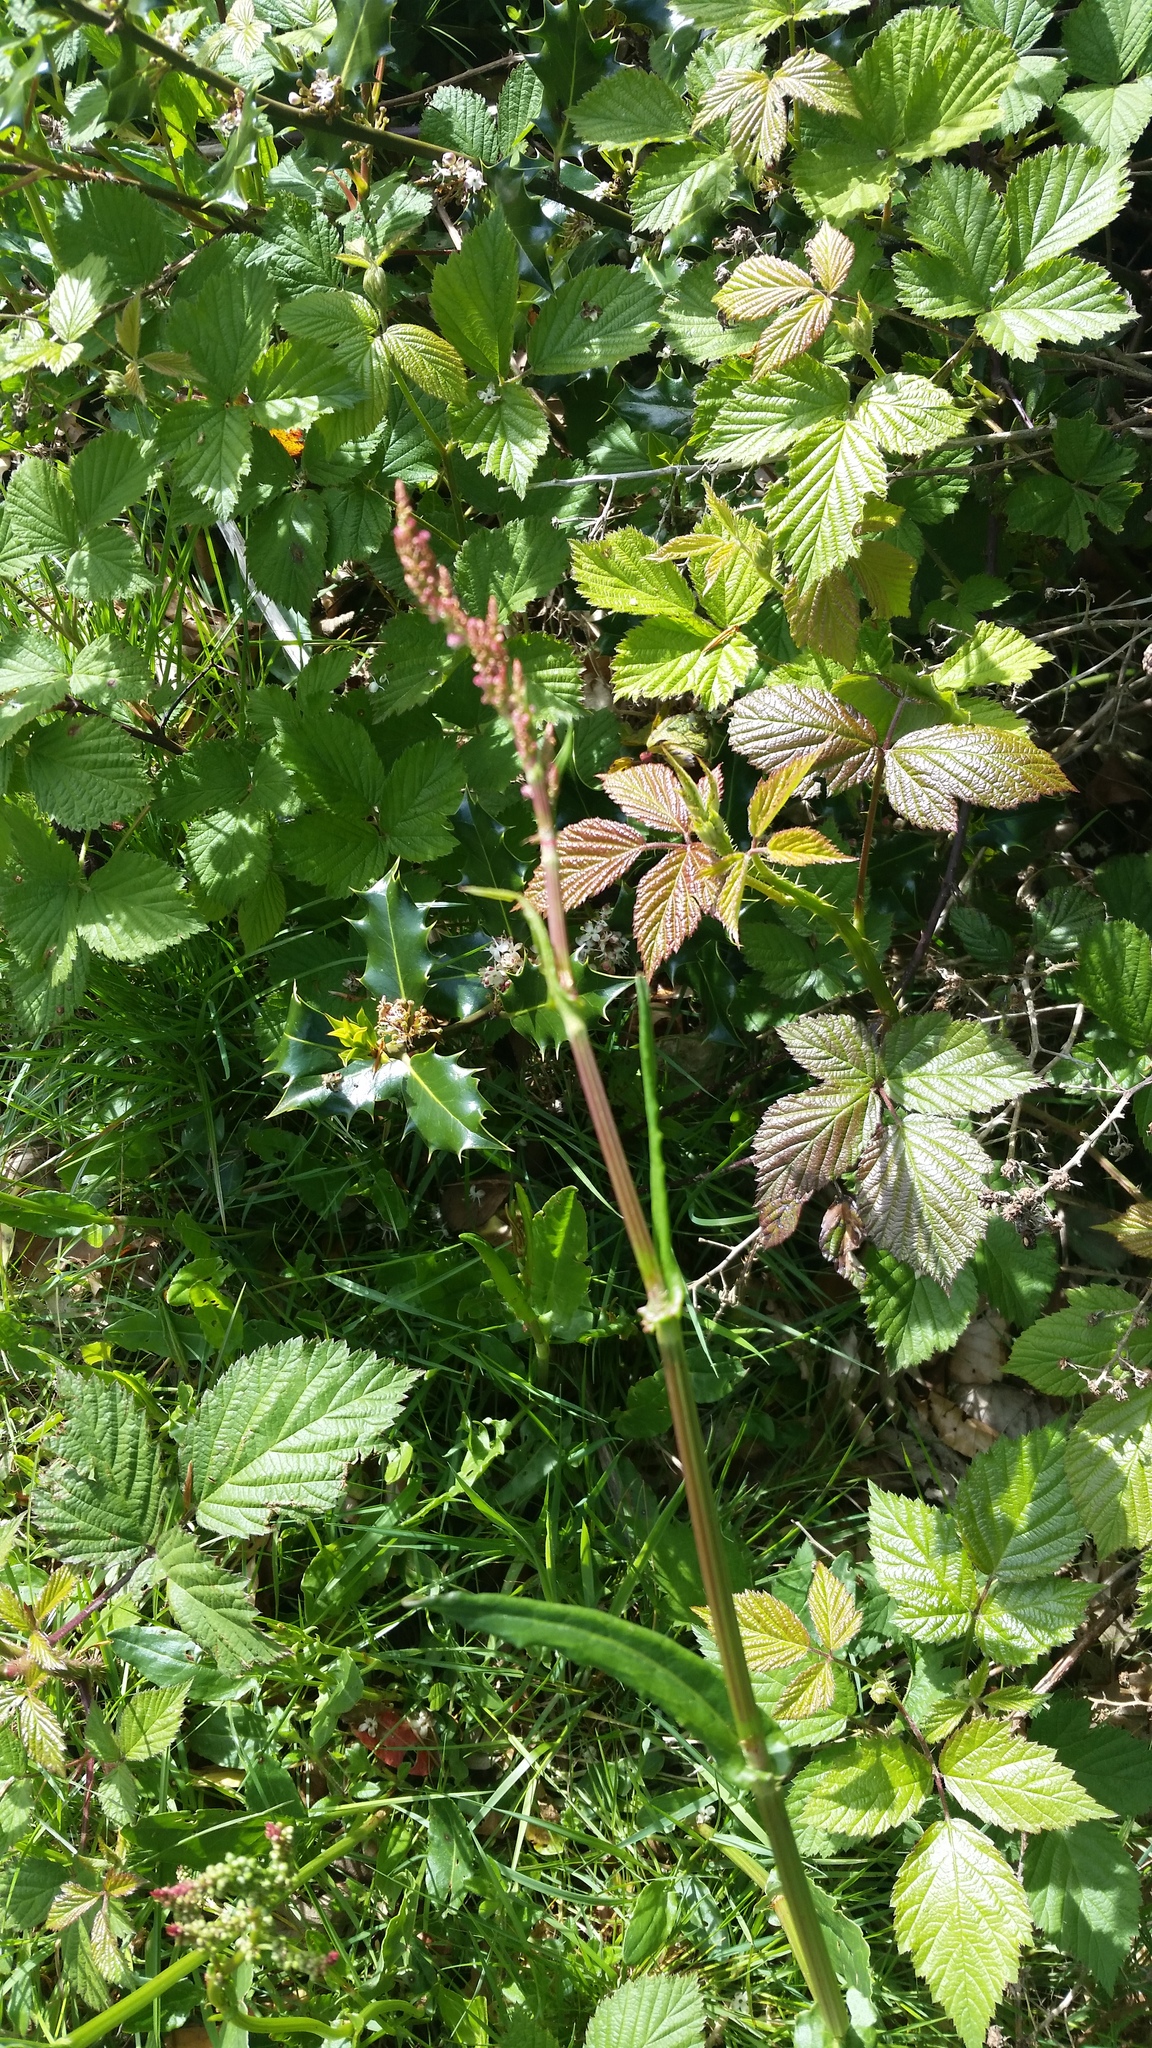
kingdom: Plantae
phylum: Tracheophyta
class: Magnoliopsida
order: Caryophyllales
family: Polygonaceae
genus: Rumex
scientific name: Rumex acetosa
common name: Garden sorrel
